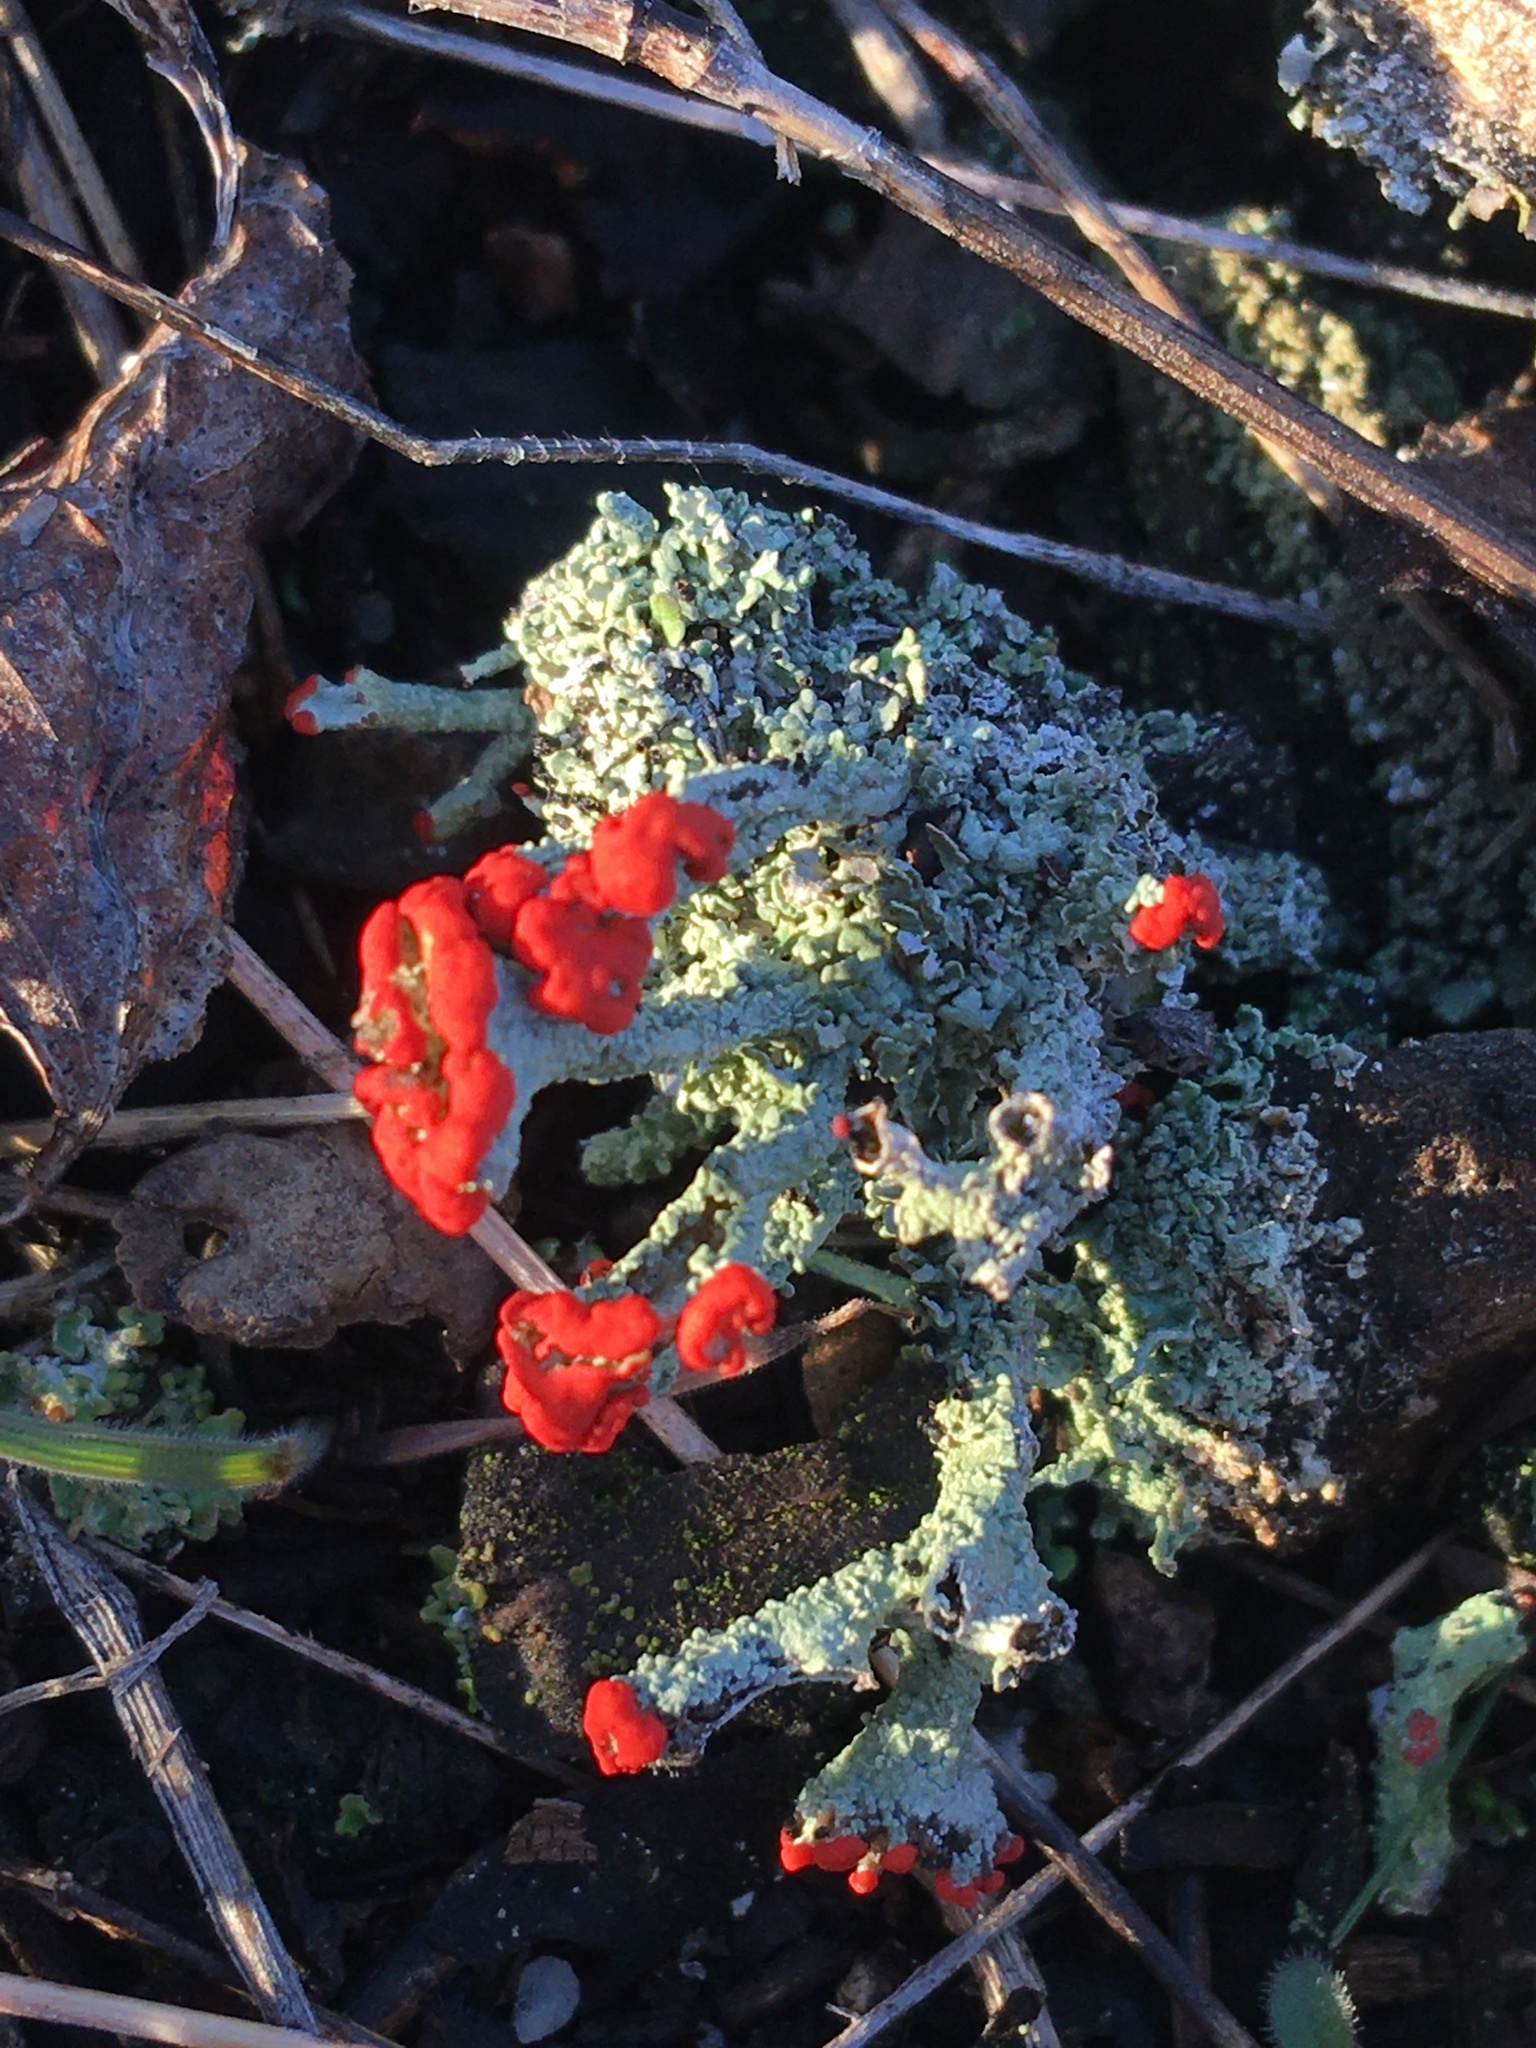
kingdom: Fungi
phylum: Ascomycota
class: Lecanoromycetes
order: Lecanorales
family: Cladoniaceae
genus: Cladonia
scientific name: Cladonia cristatella
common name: British soldier lichen
